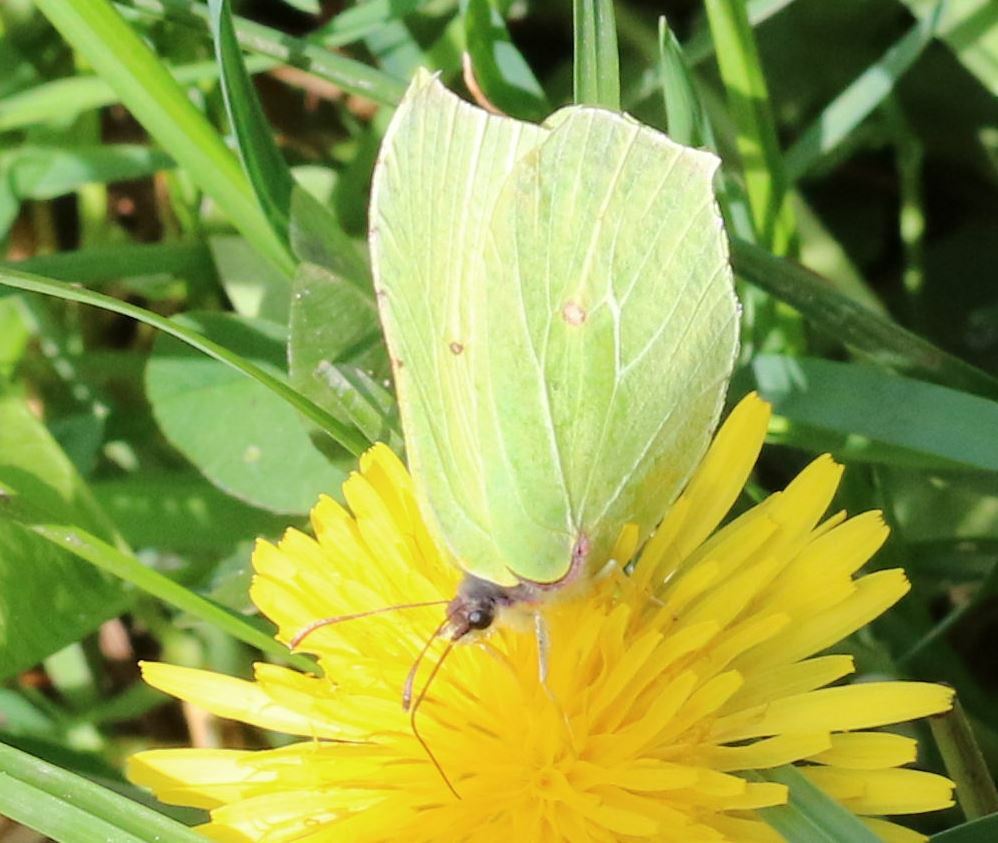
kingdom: Animalia
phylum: Arthropoda
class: Insecta
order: Lepidoptera
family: Pieridae
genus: Gonepteryx
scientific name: Gonepteryx rhamni
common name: Brimstone
